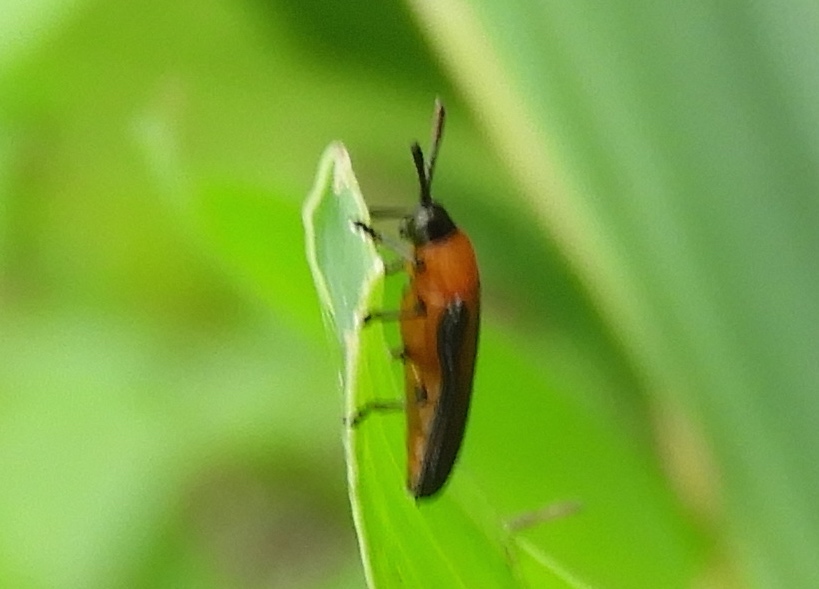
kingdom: Animalia
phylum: Arthropoda
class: Insecta
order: Coleoptera
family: Chrysomelidae
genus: Chalepus
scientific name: Chalepus bellulus
